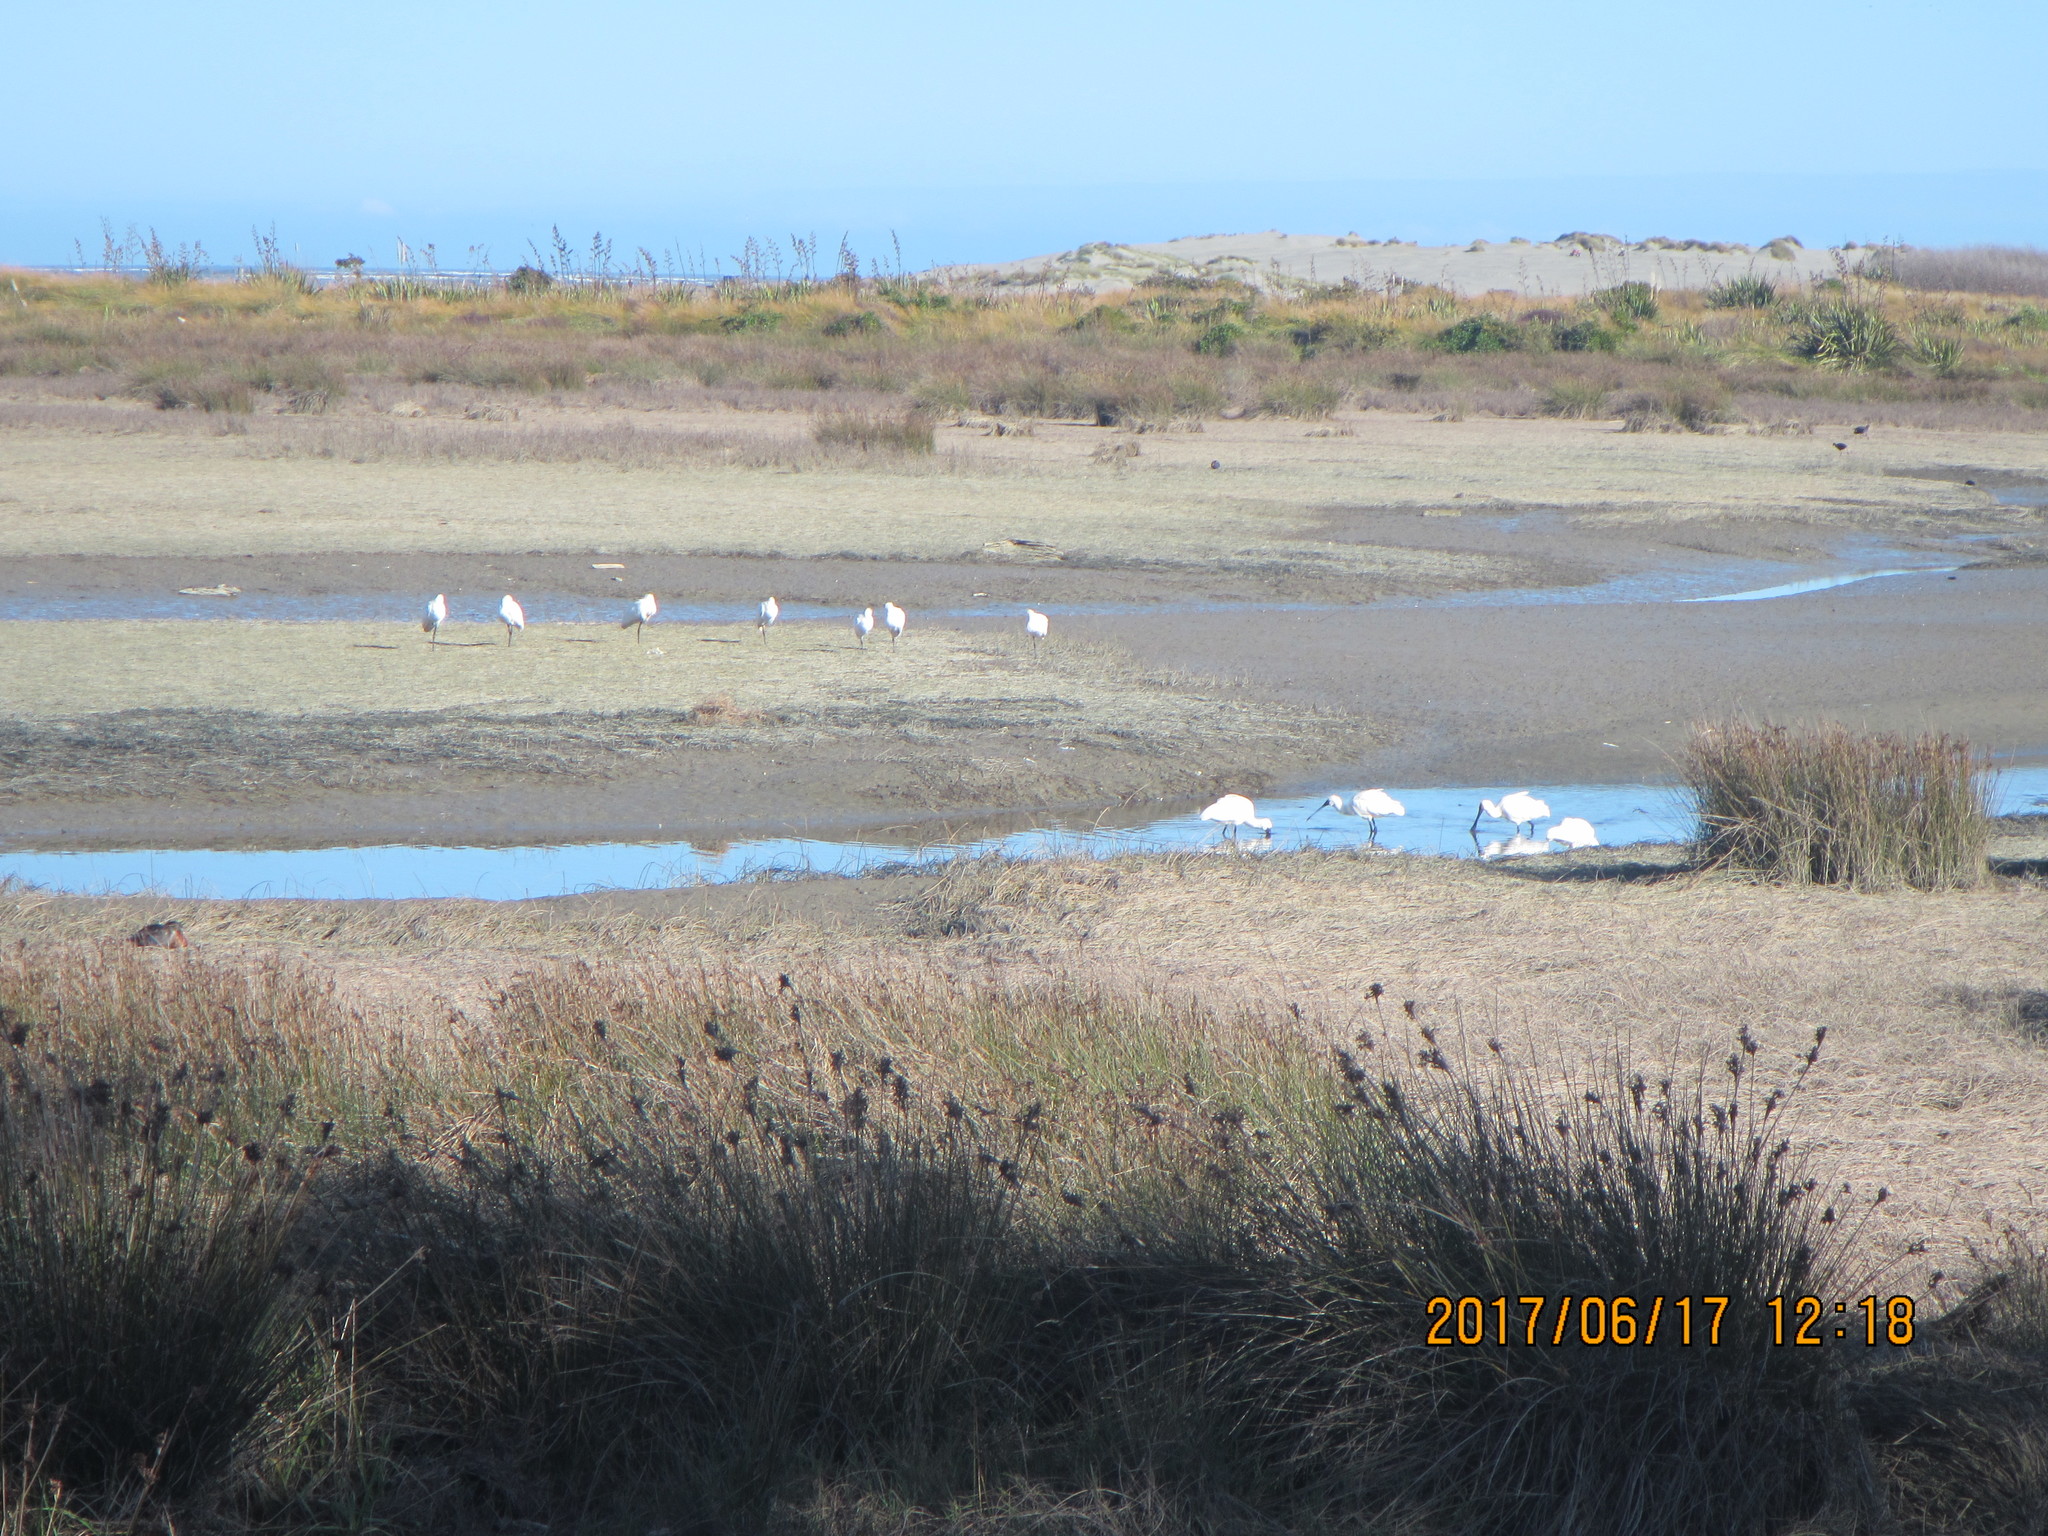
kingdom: Animalia
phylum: Chordata
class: Aves
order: Pelecaniformes
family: Threskiornithidae
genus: Platalea
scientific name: Platalea regia
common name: Royal spoonbill
